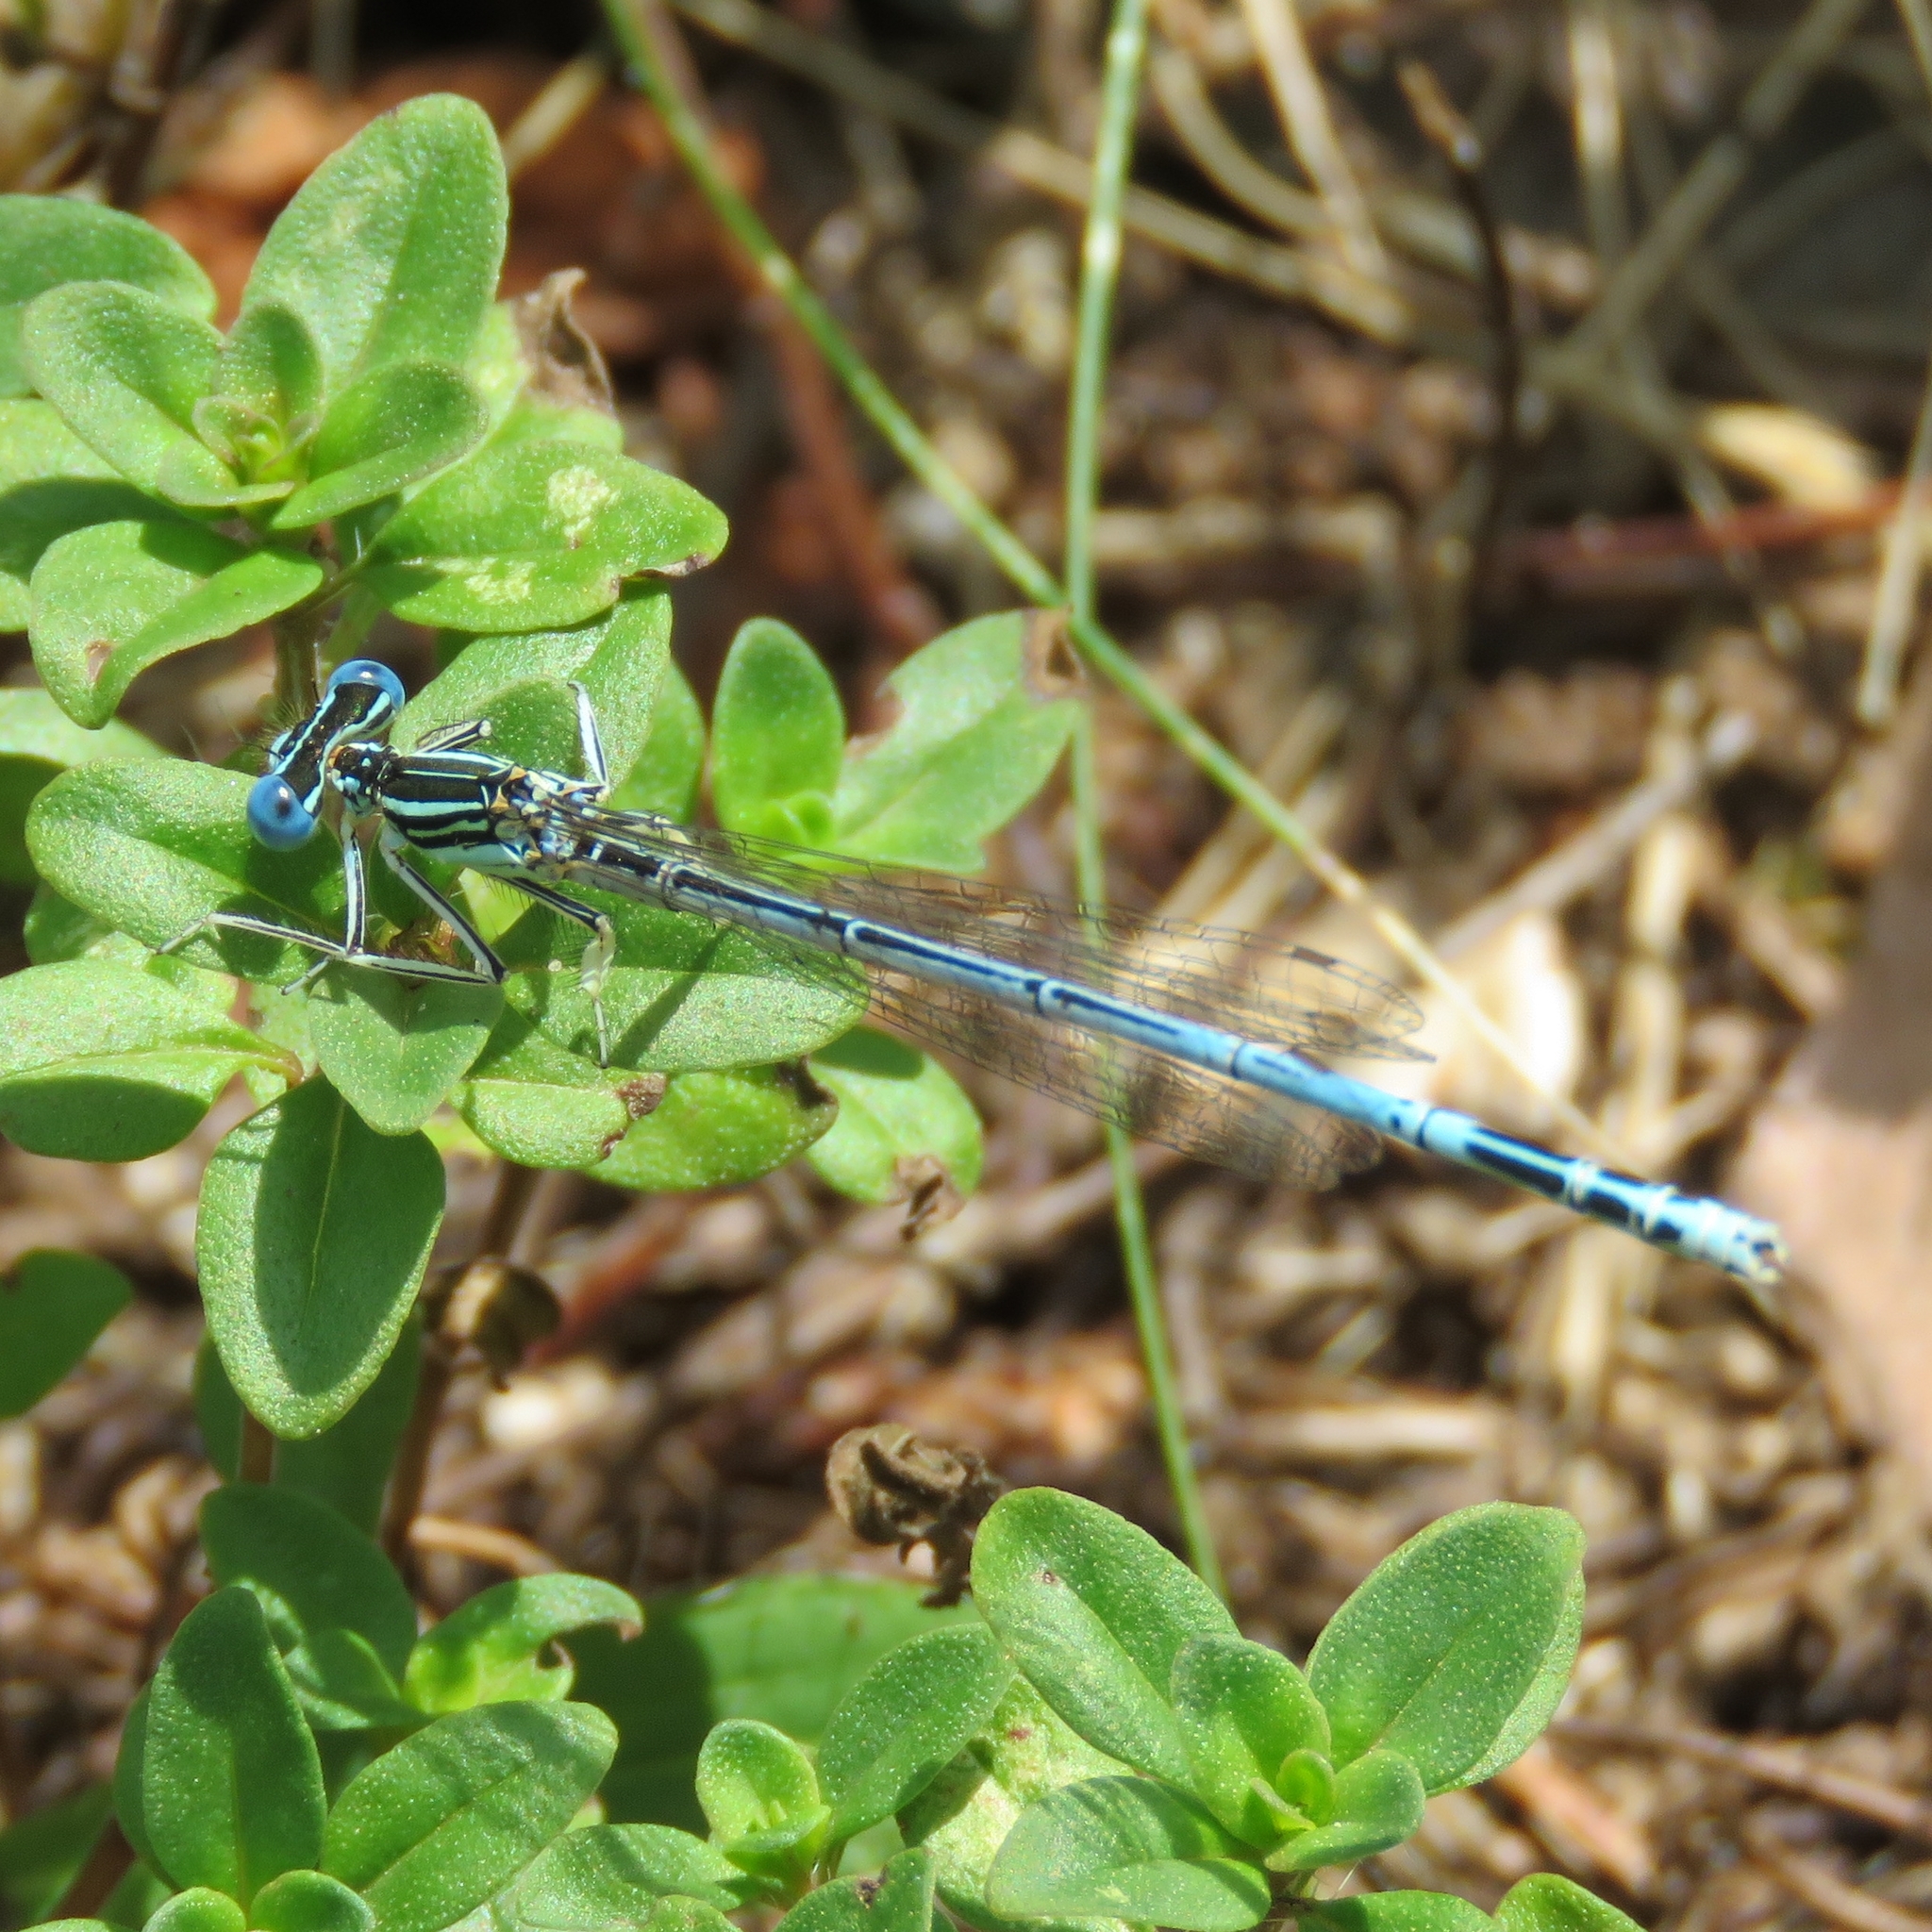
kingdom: Animalia
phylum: Arthropoda
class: Insecta
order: Odonata
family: Platycnemididae
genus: Platycnemis
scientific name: Platycnemis pennipes
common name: White-legged damselfly
